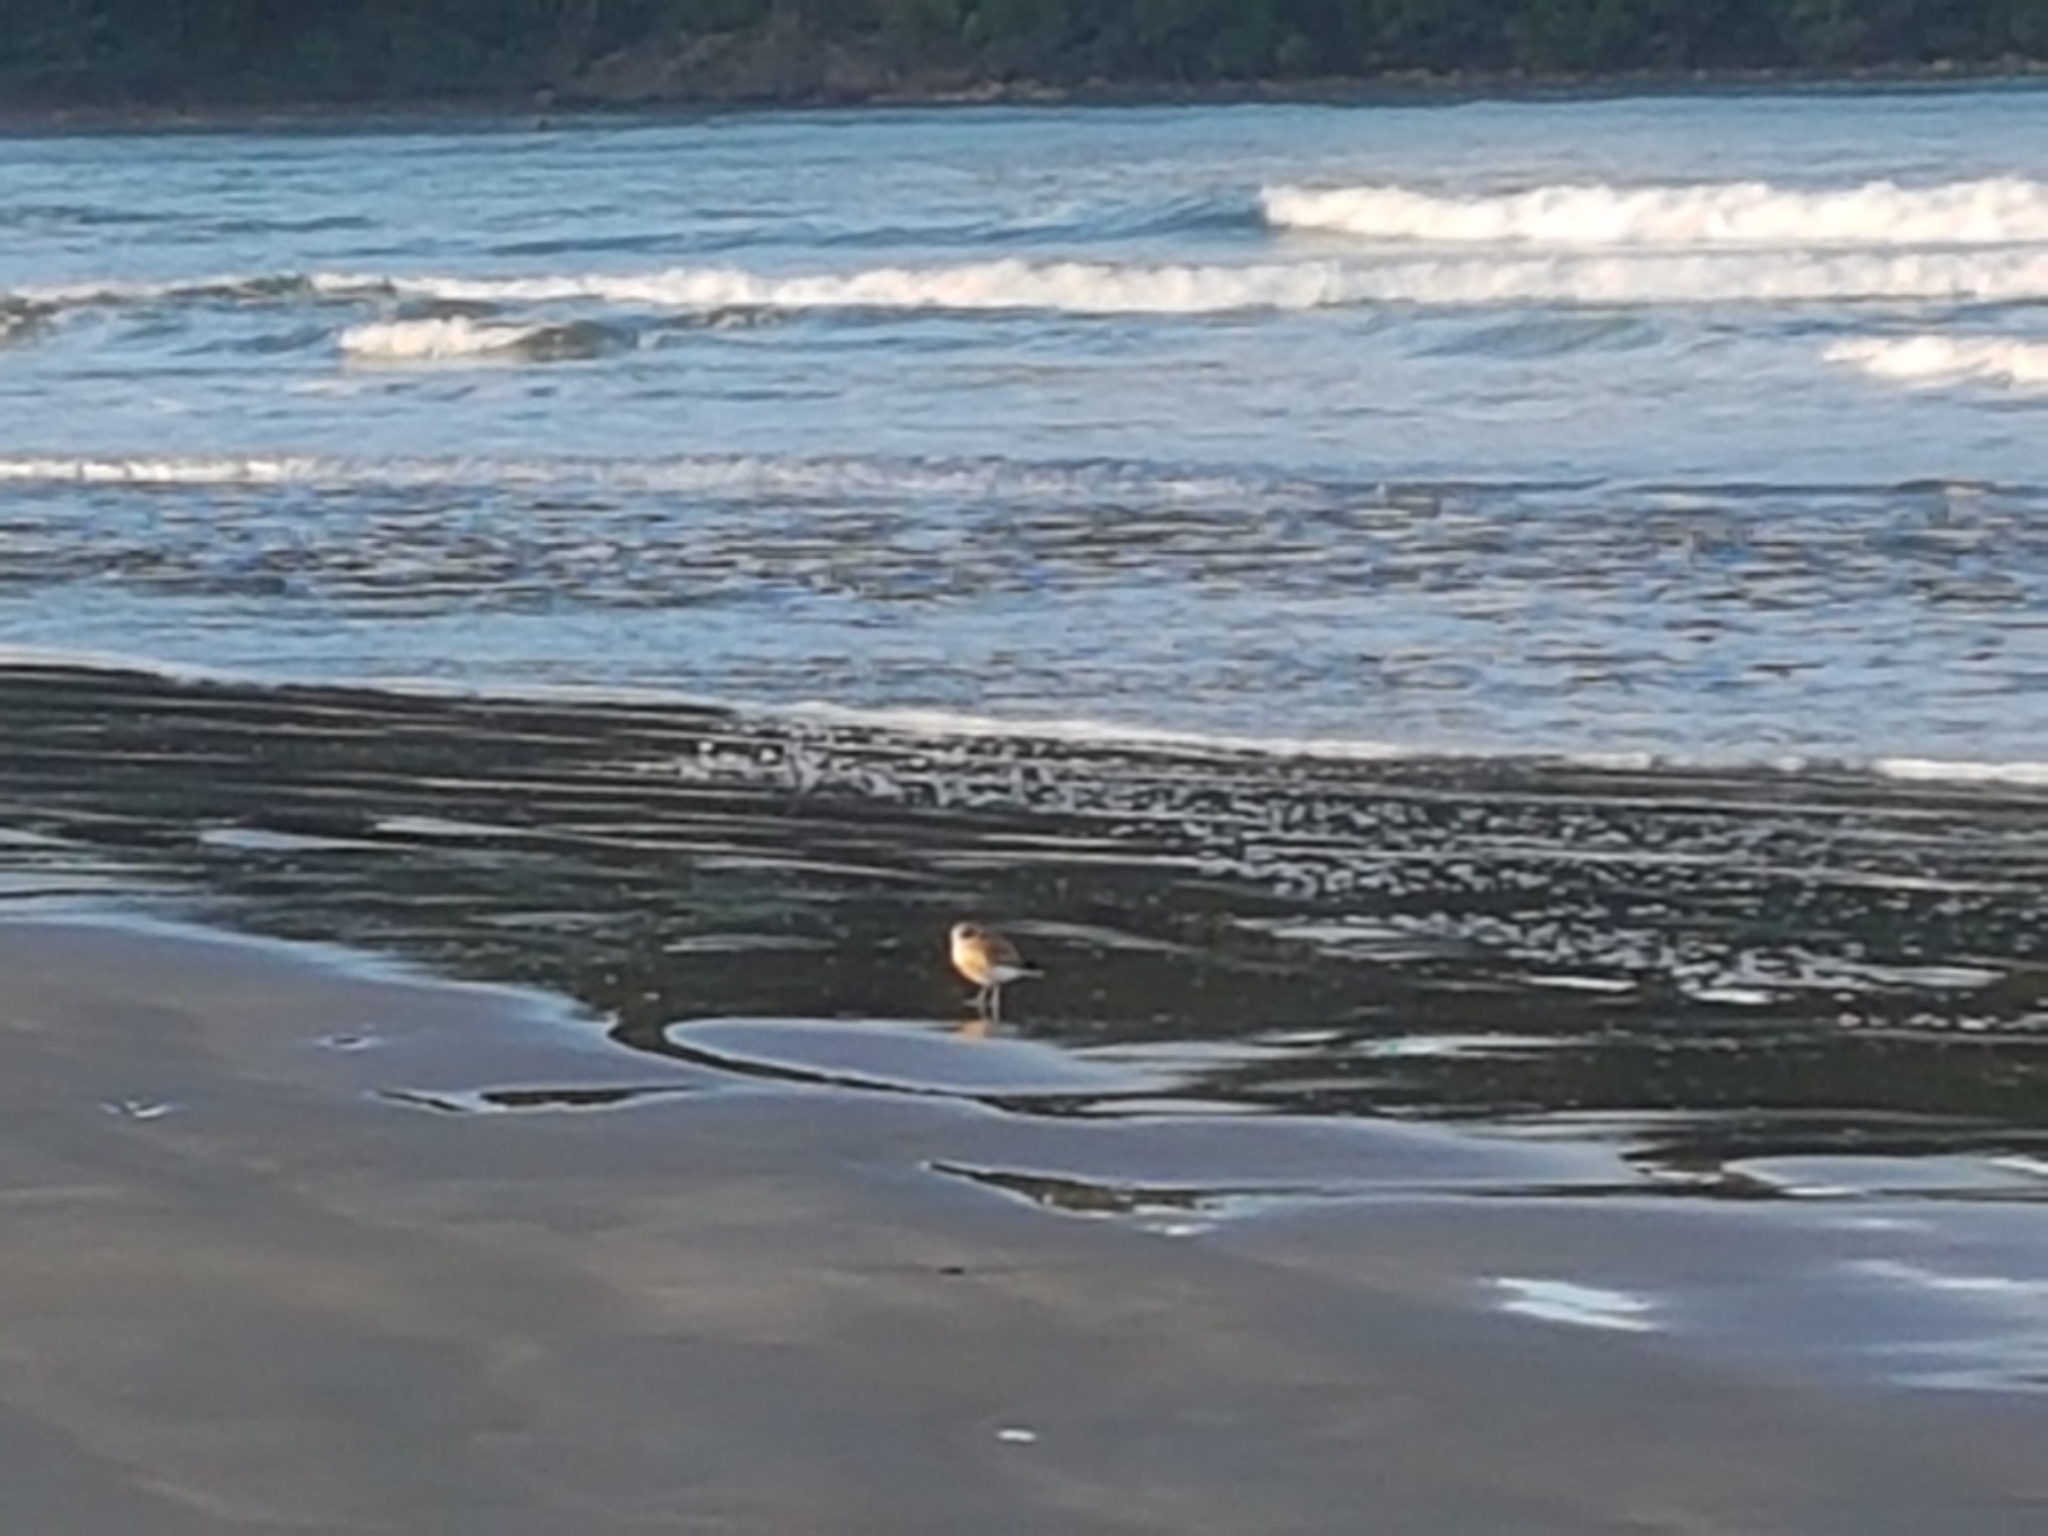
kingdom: Animalia
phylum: Chordata
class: Aves
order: Charadriiformes
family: Charadriidae
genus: Anarhynchus
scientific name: Anarhynchus
